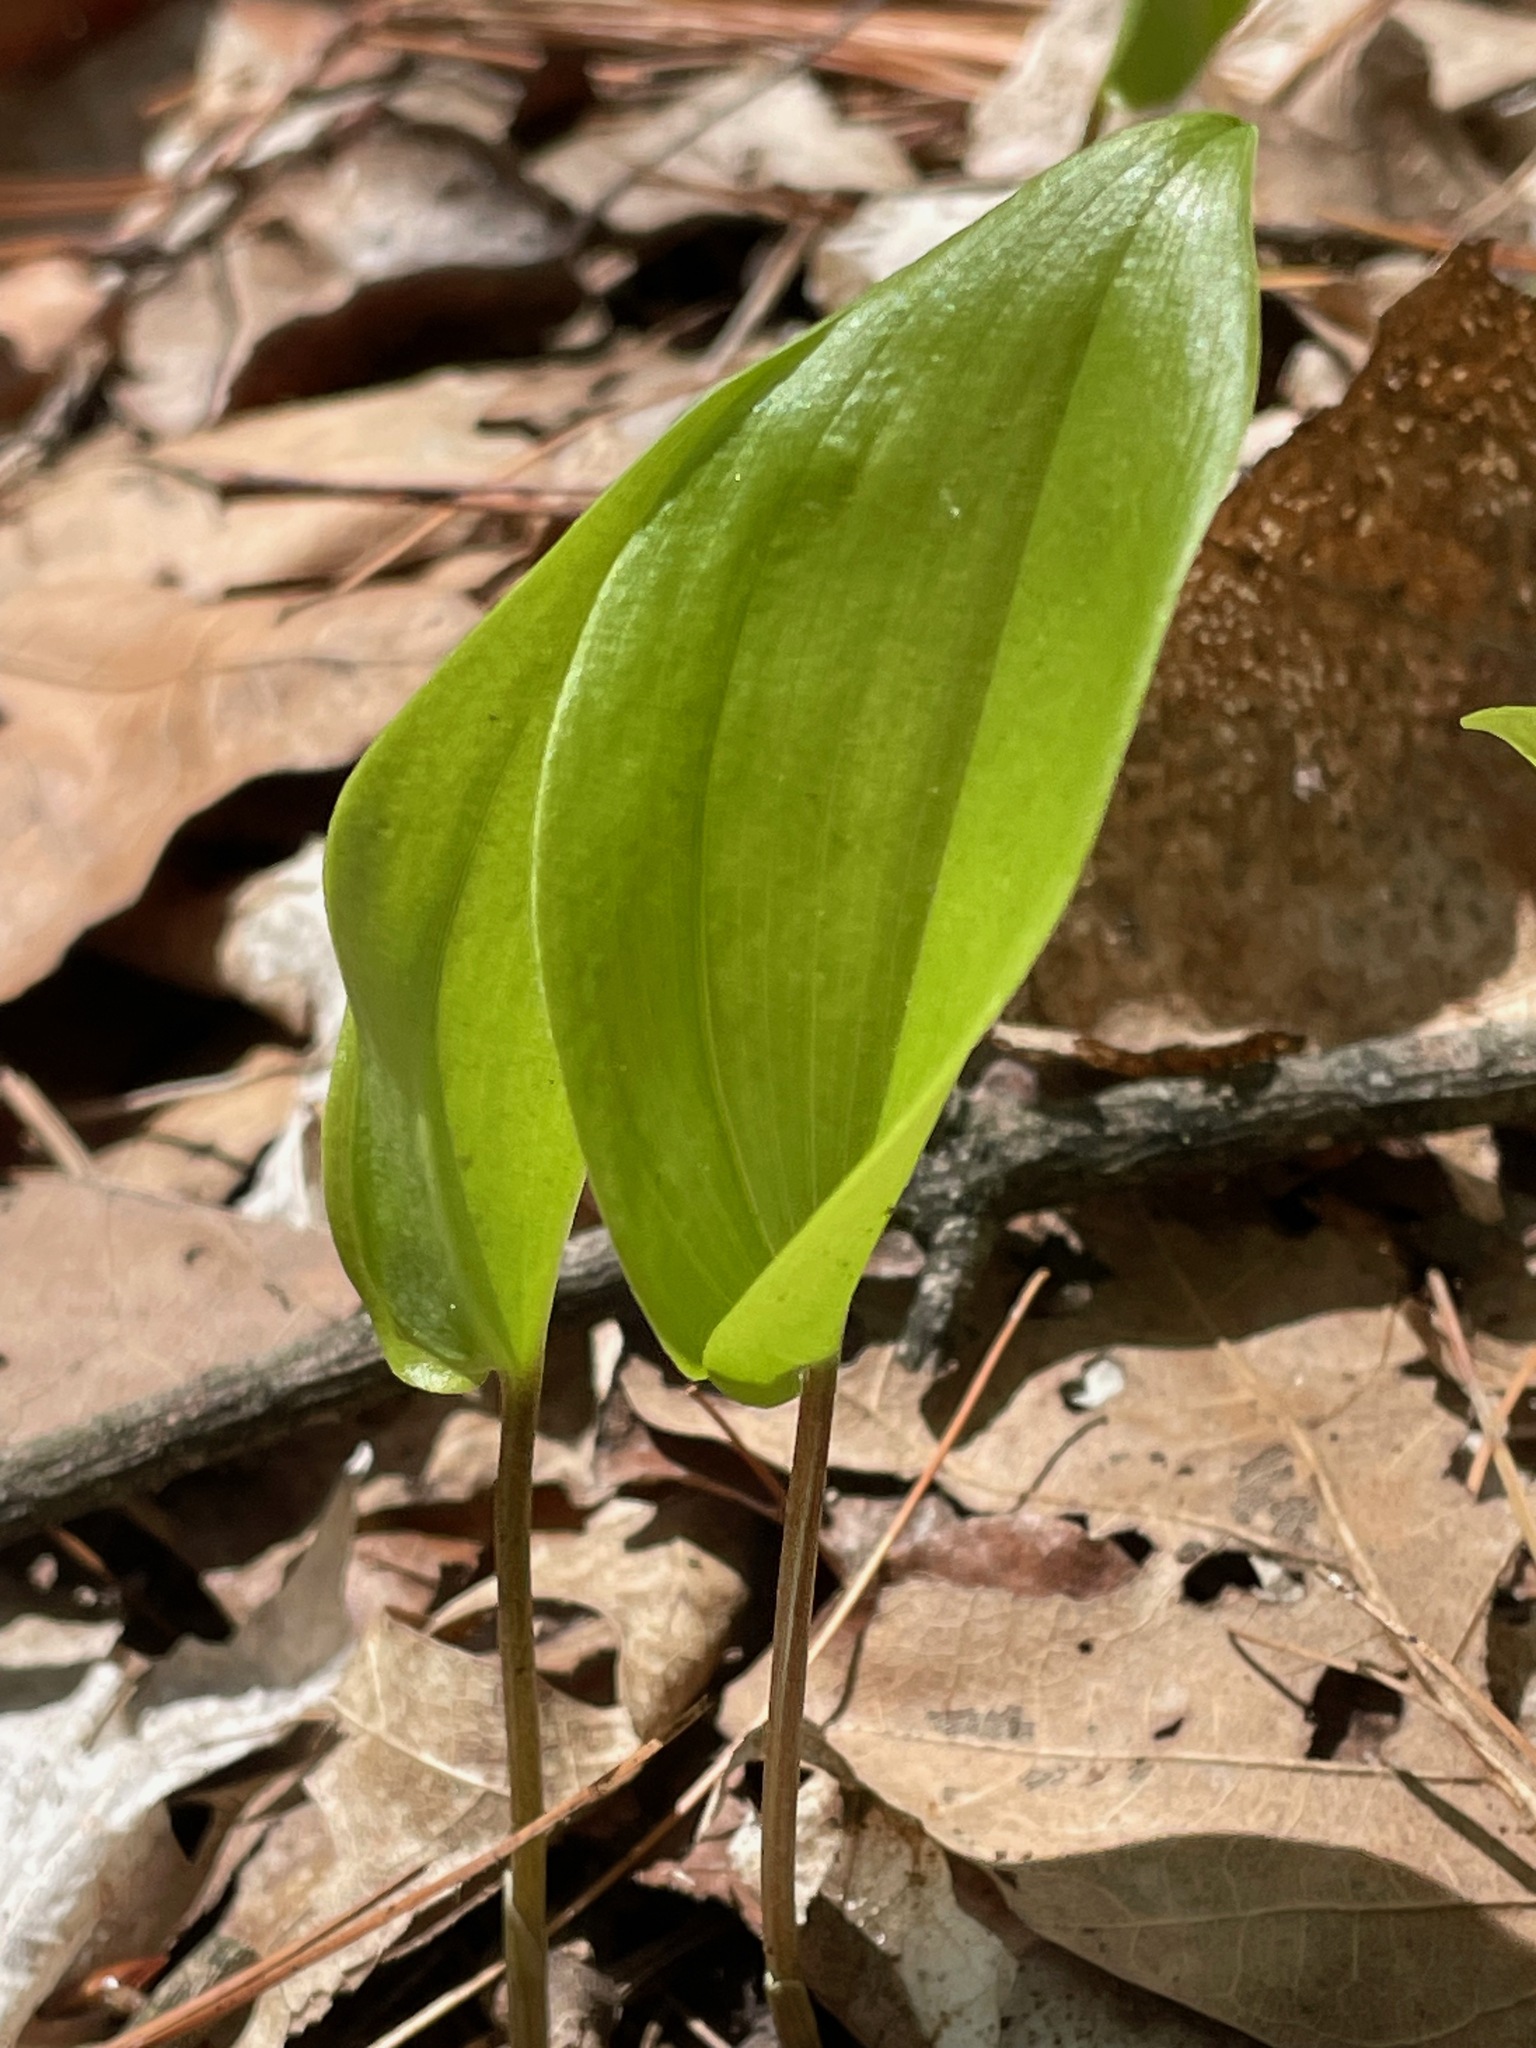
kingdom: Plantae
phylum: Tracheophyta
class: Liliopsida
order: Asparagales
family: Asparagaceae
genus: Maianthemum
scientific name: Maianthemum canadense
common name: False lily-of-the-valley
